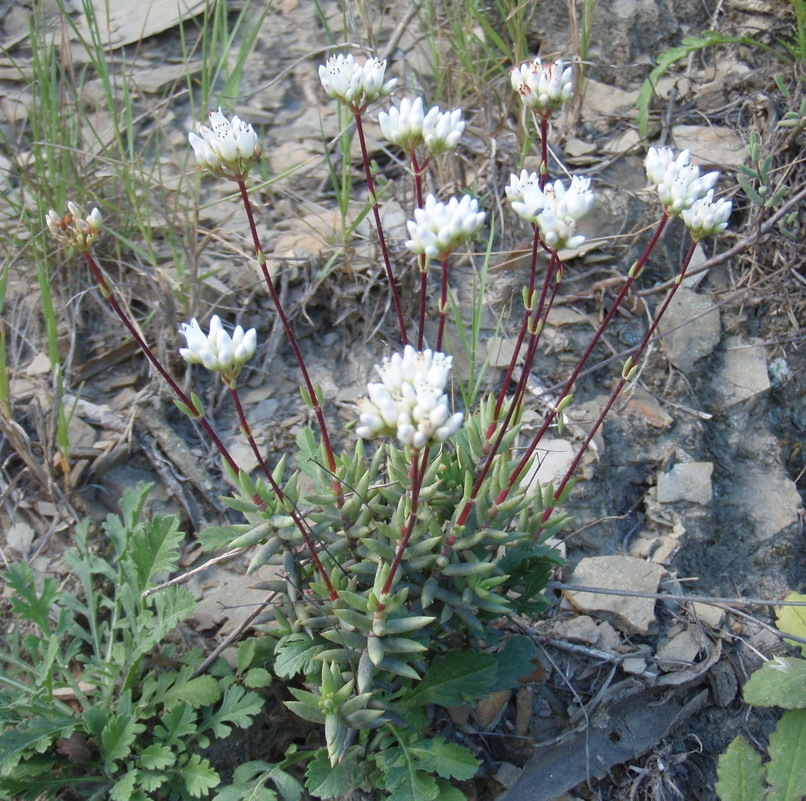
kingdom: Plantae
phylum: Tracheophyta
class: Magnoliopsida
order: Saxifragales
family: Crassulaceae
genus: Crassula
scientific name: Crassula biplanata
